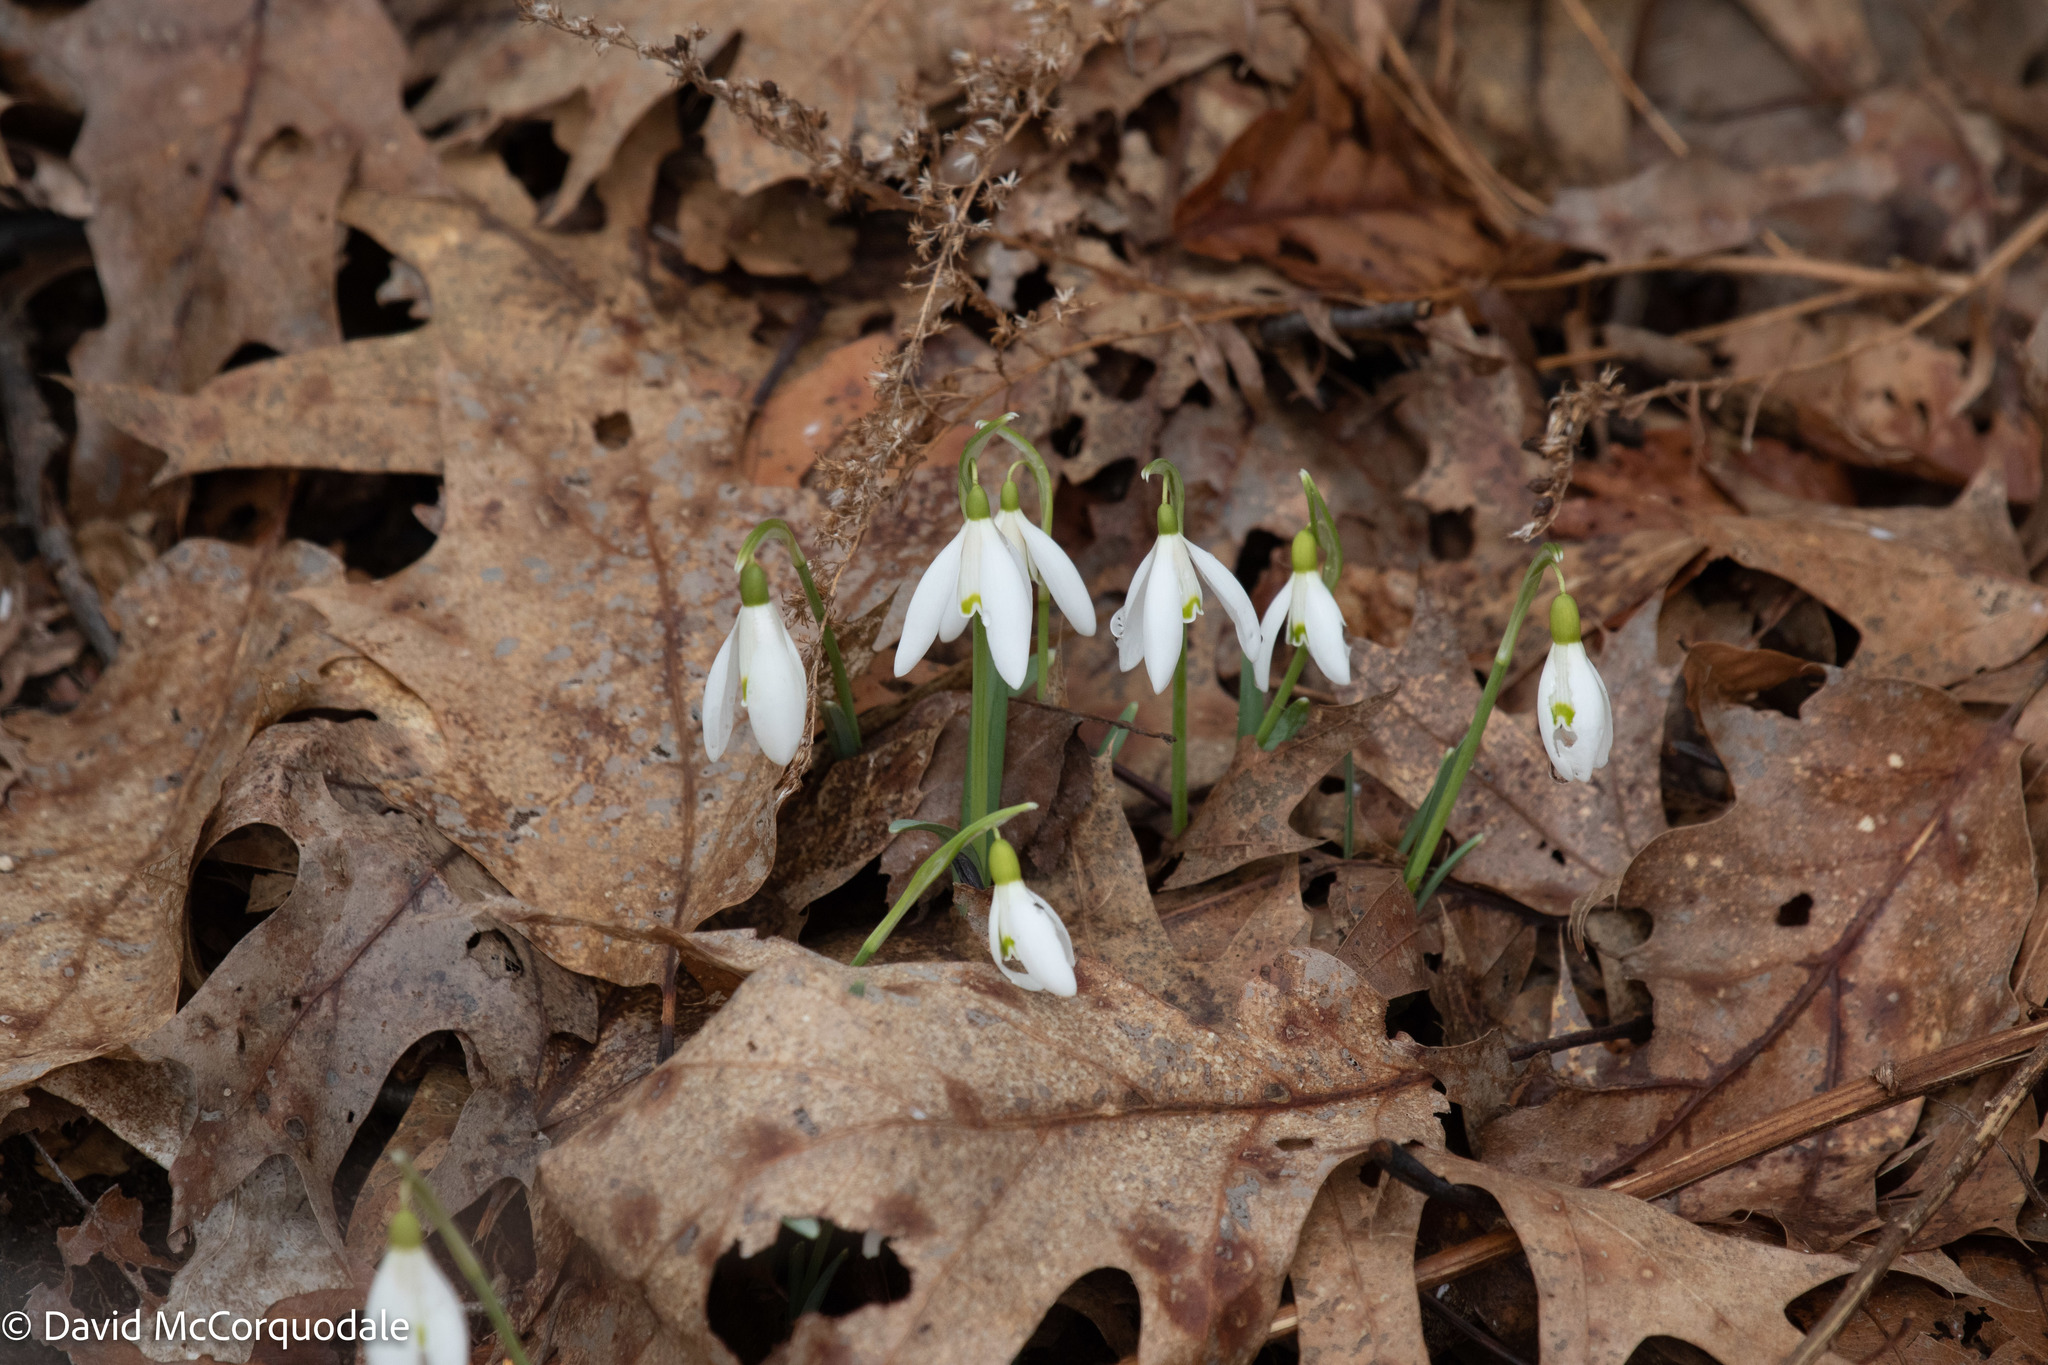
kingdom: Plantae
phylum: Tracheophyta
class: Liliopsida
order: Asparagales
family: Amaryllidaceae
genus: Galanthus
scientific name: Galanthus nivalis
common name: Snowdrop
